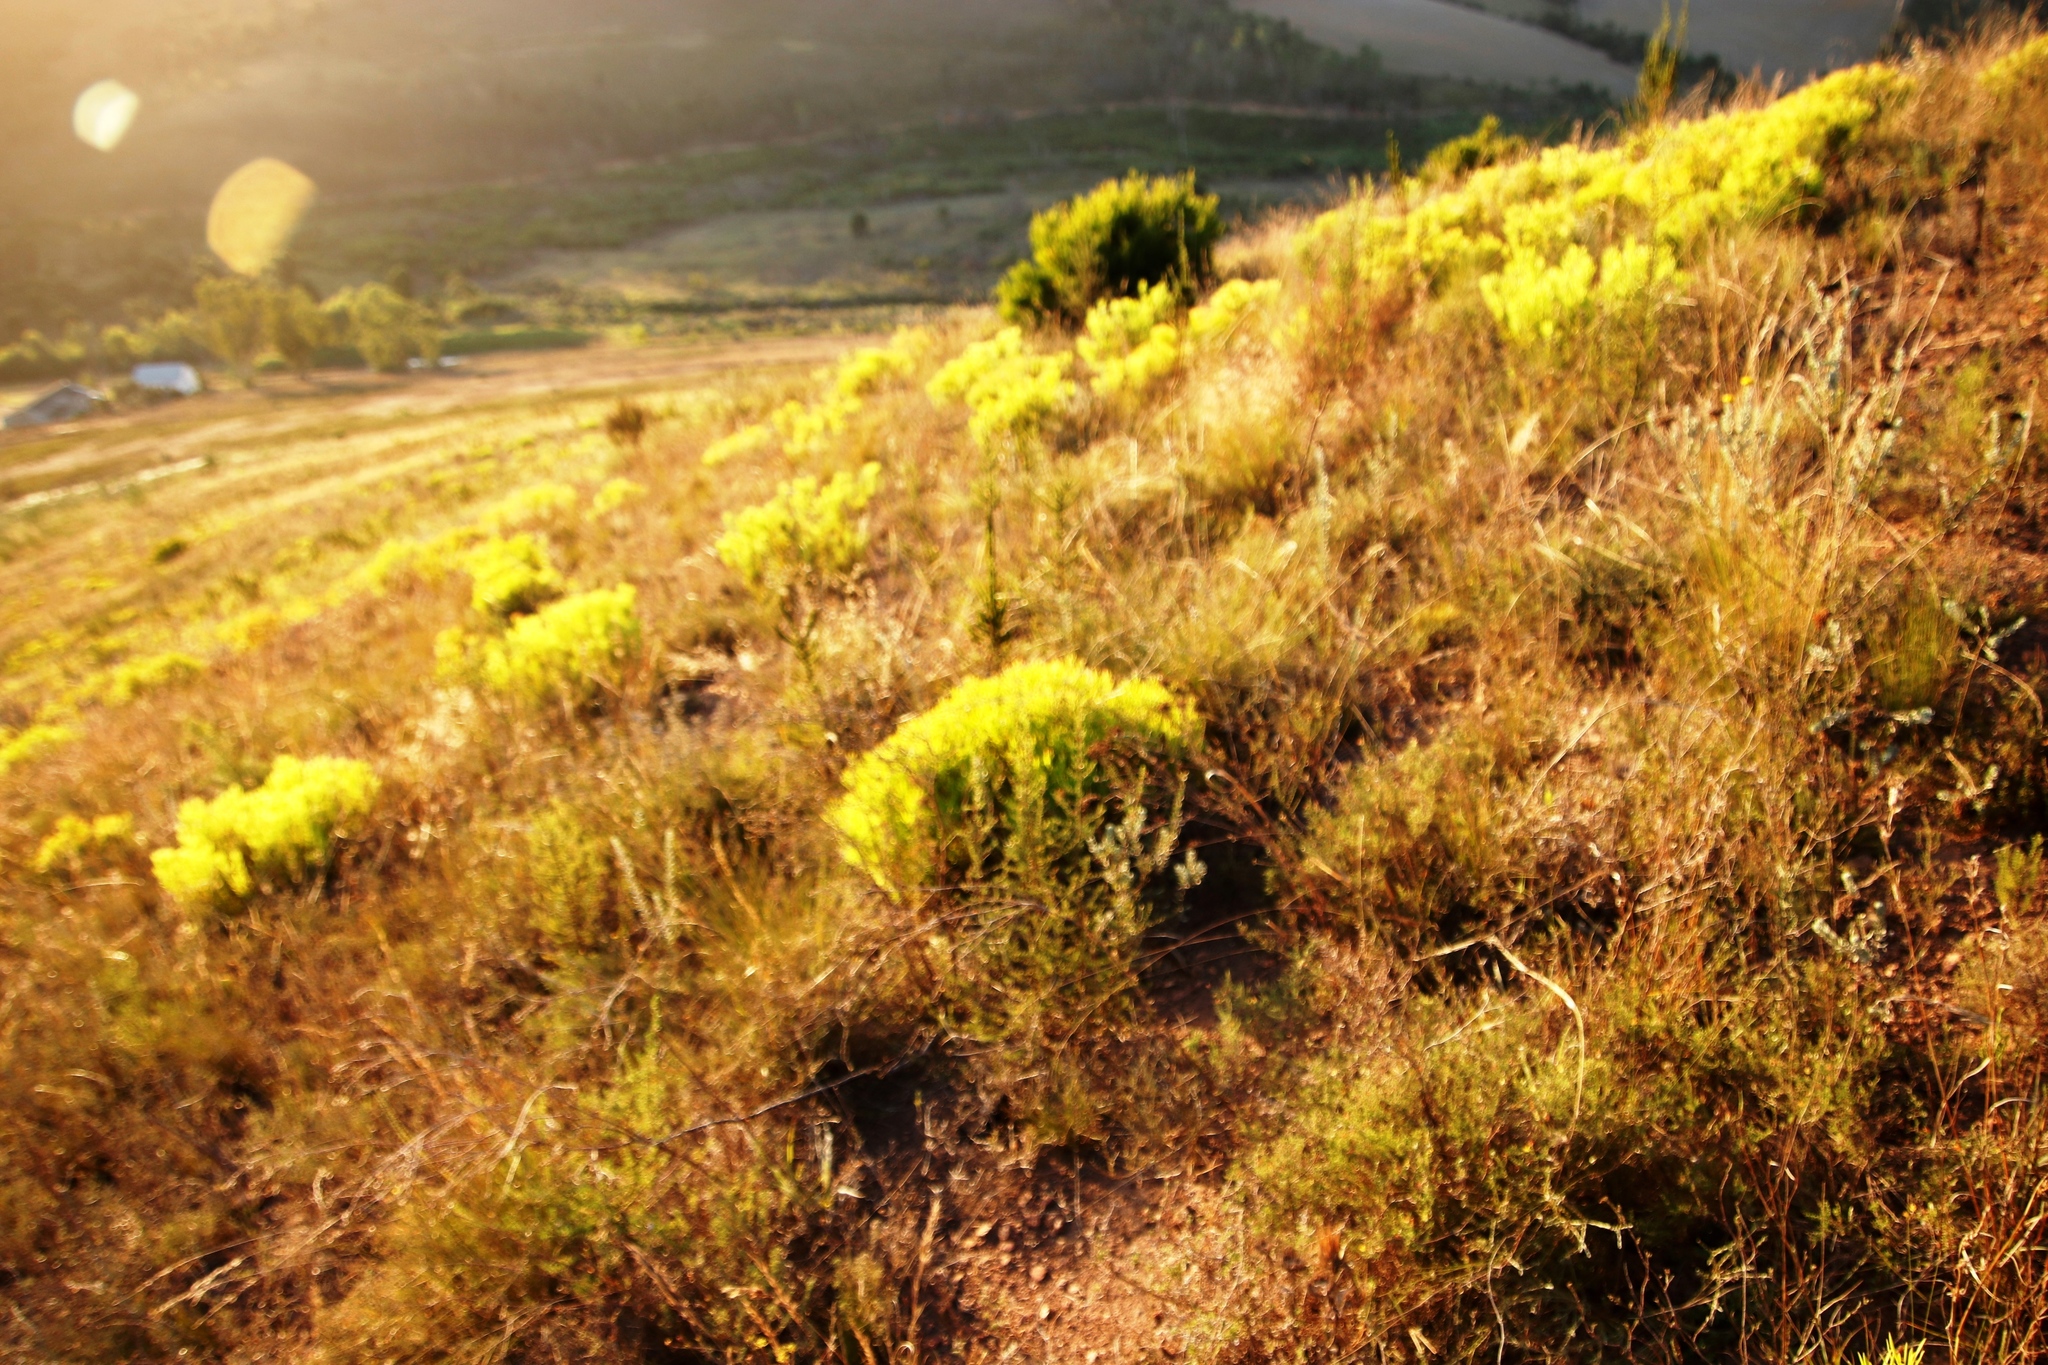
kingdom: Plantae
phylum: Tracheophyta
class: Magnoliopsida
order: Proteales
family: Proteaceae
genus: Leucadendron
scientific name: Leucadendron salignum
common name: Common sunshine conebush
